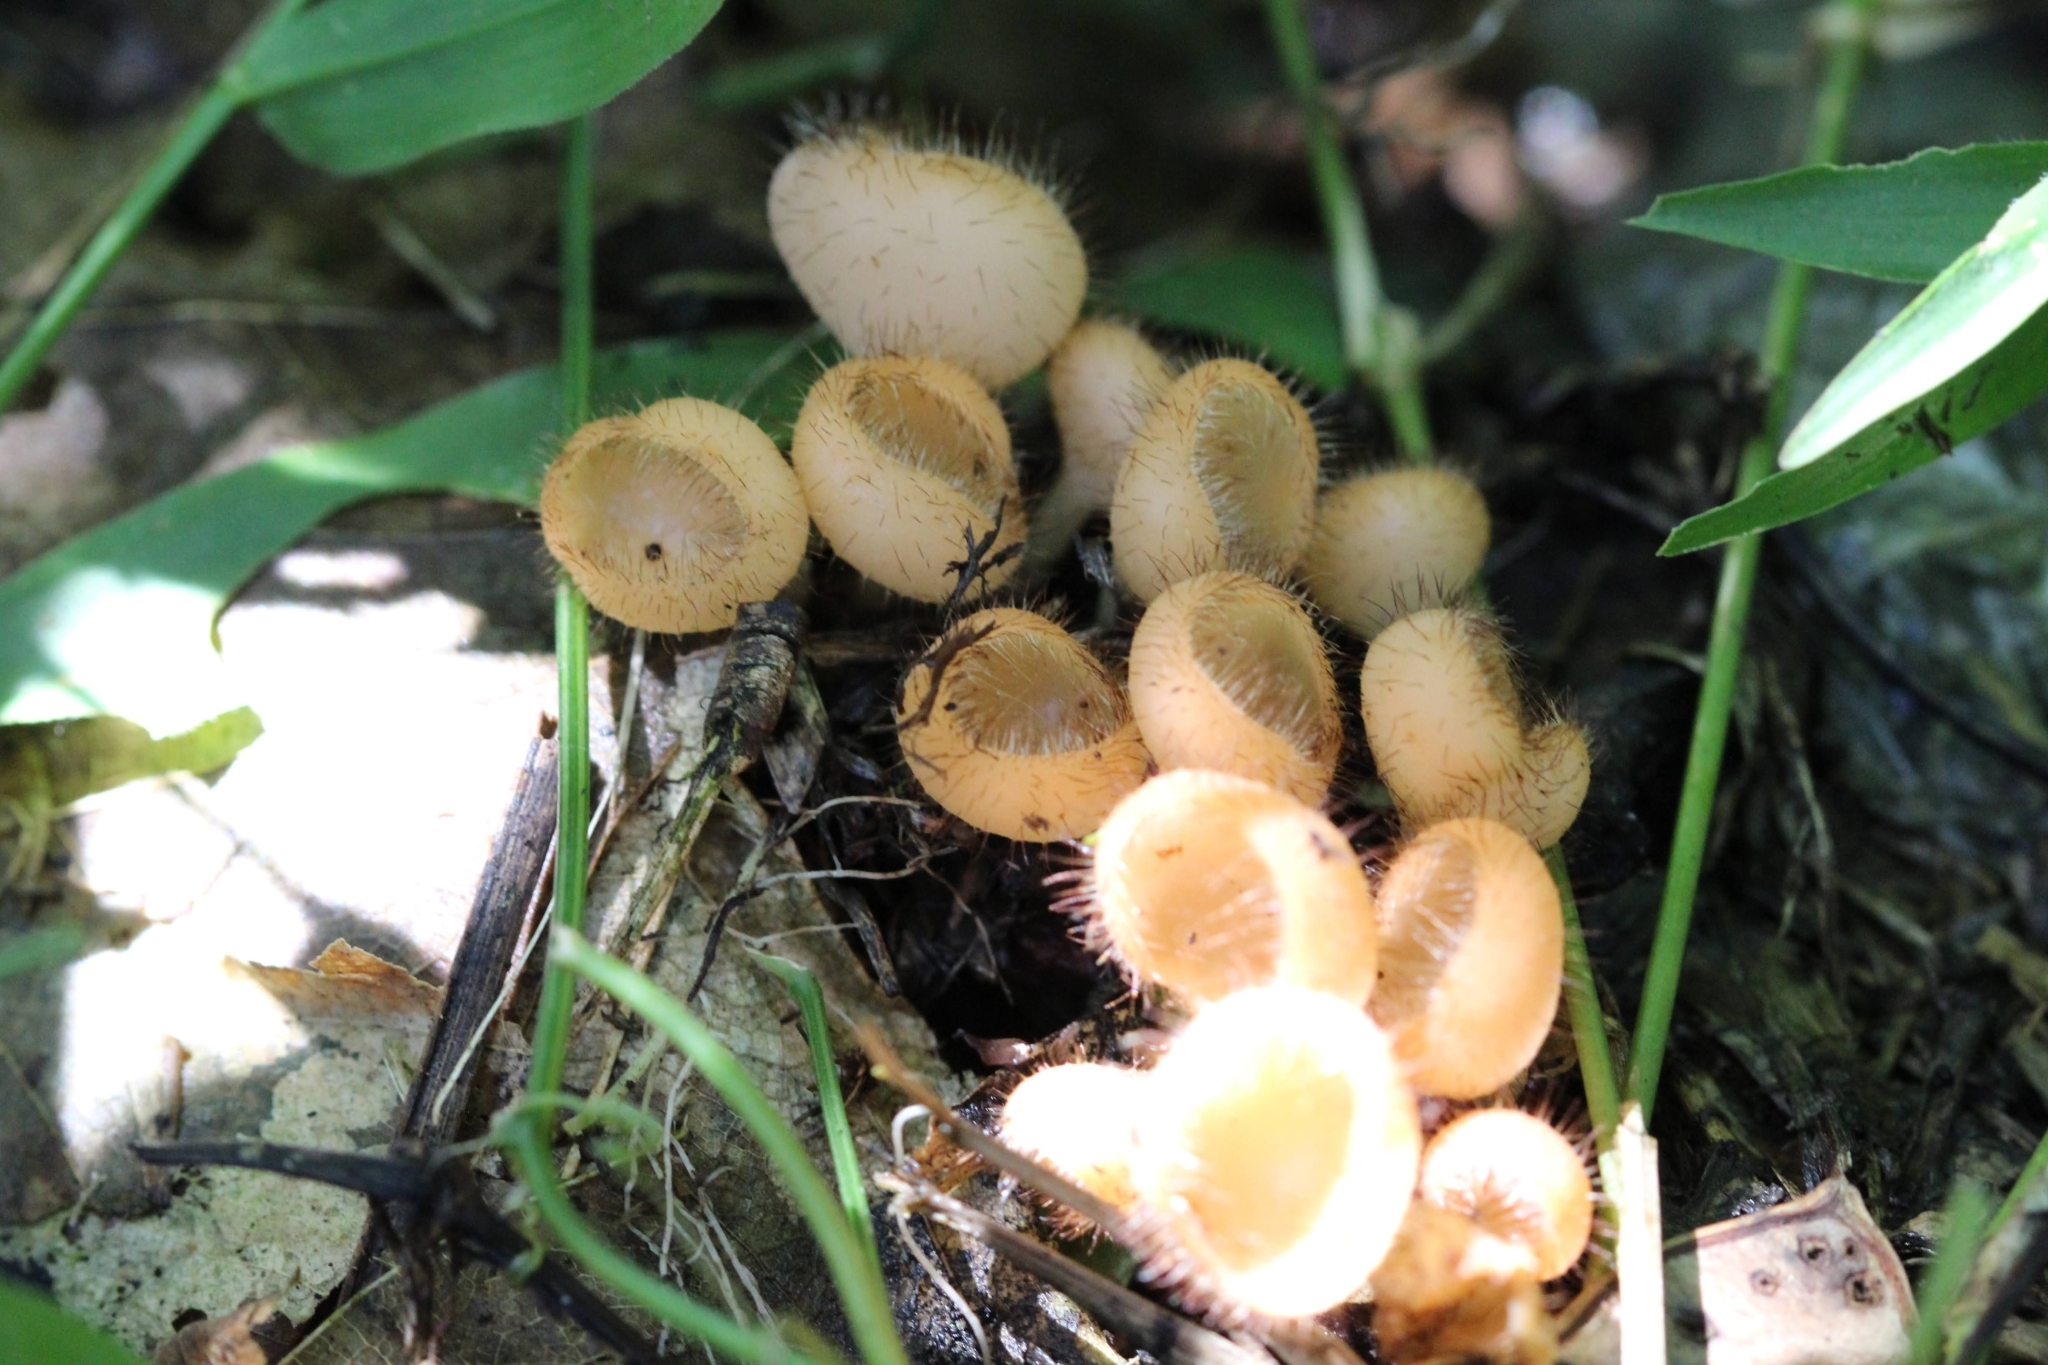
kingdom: Fungi
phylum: Ascomycota
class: Pezizomycetes
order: Pezizales
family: Sarcoscyphaceae
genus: Cookeina
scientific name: Cookeina tricholoma
